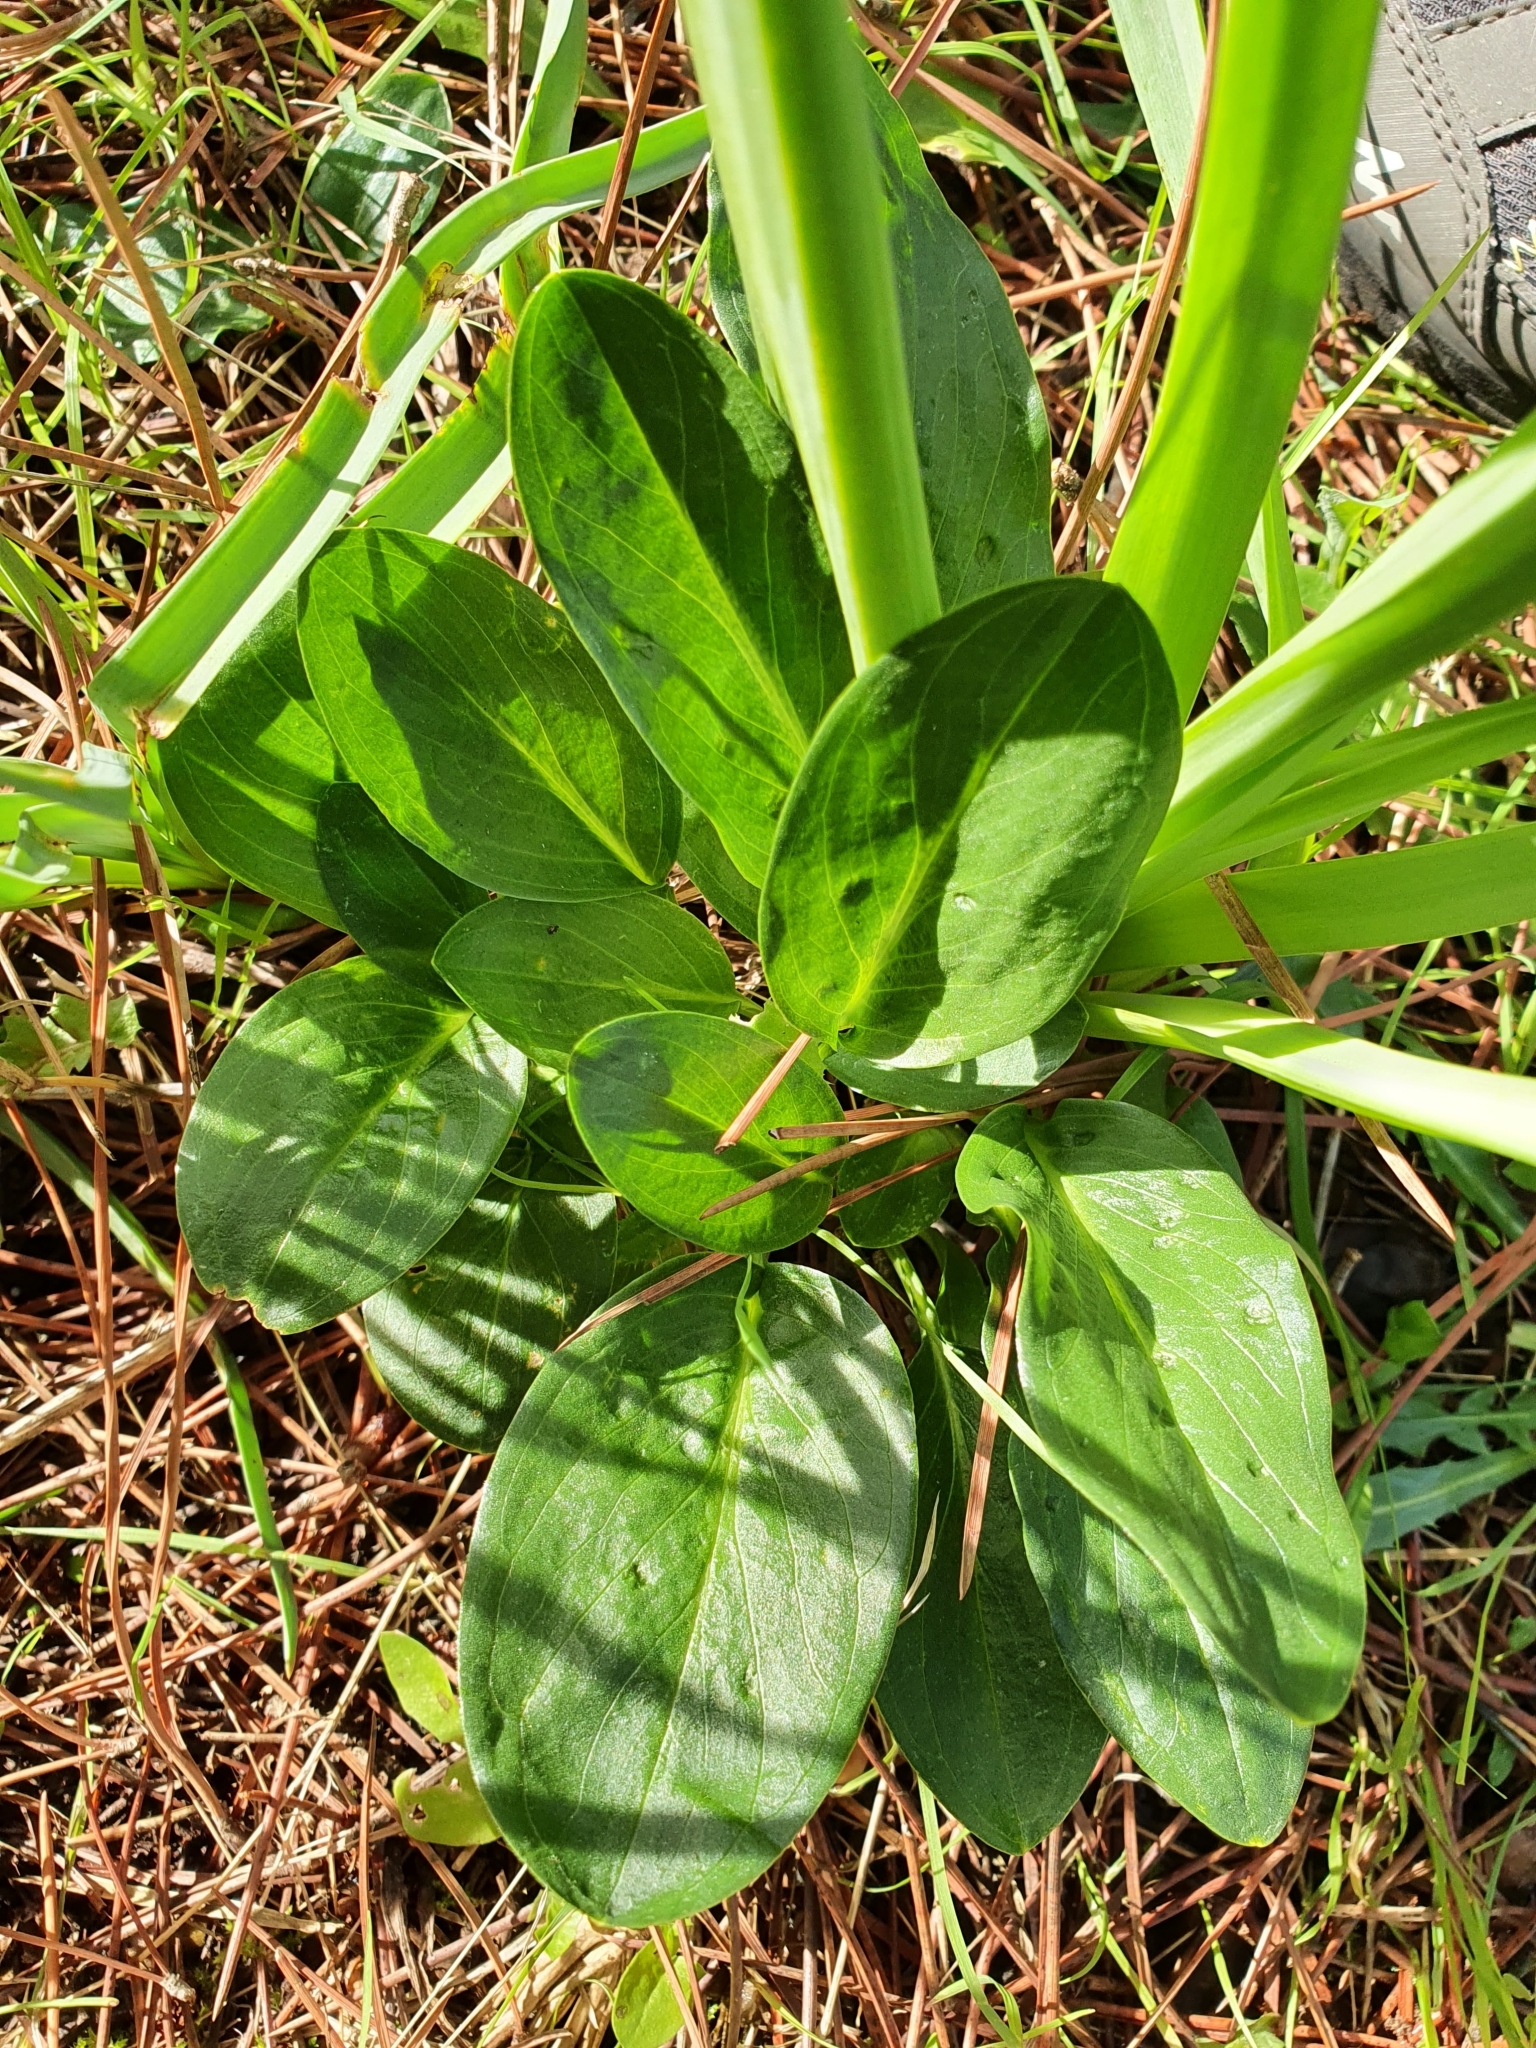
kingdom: Plantae
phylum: Tracheophyta
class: Liliopsida
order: Alismatales
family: Araceae
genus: Biarum
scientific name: Biarum dispar
